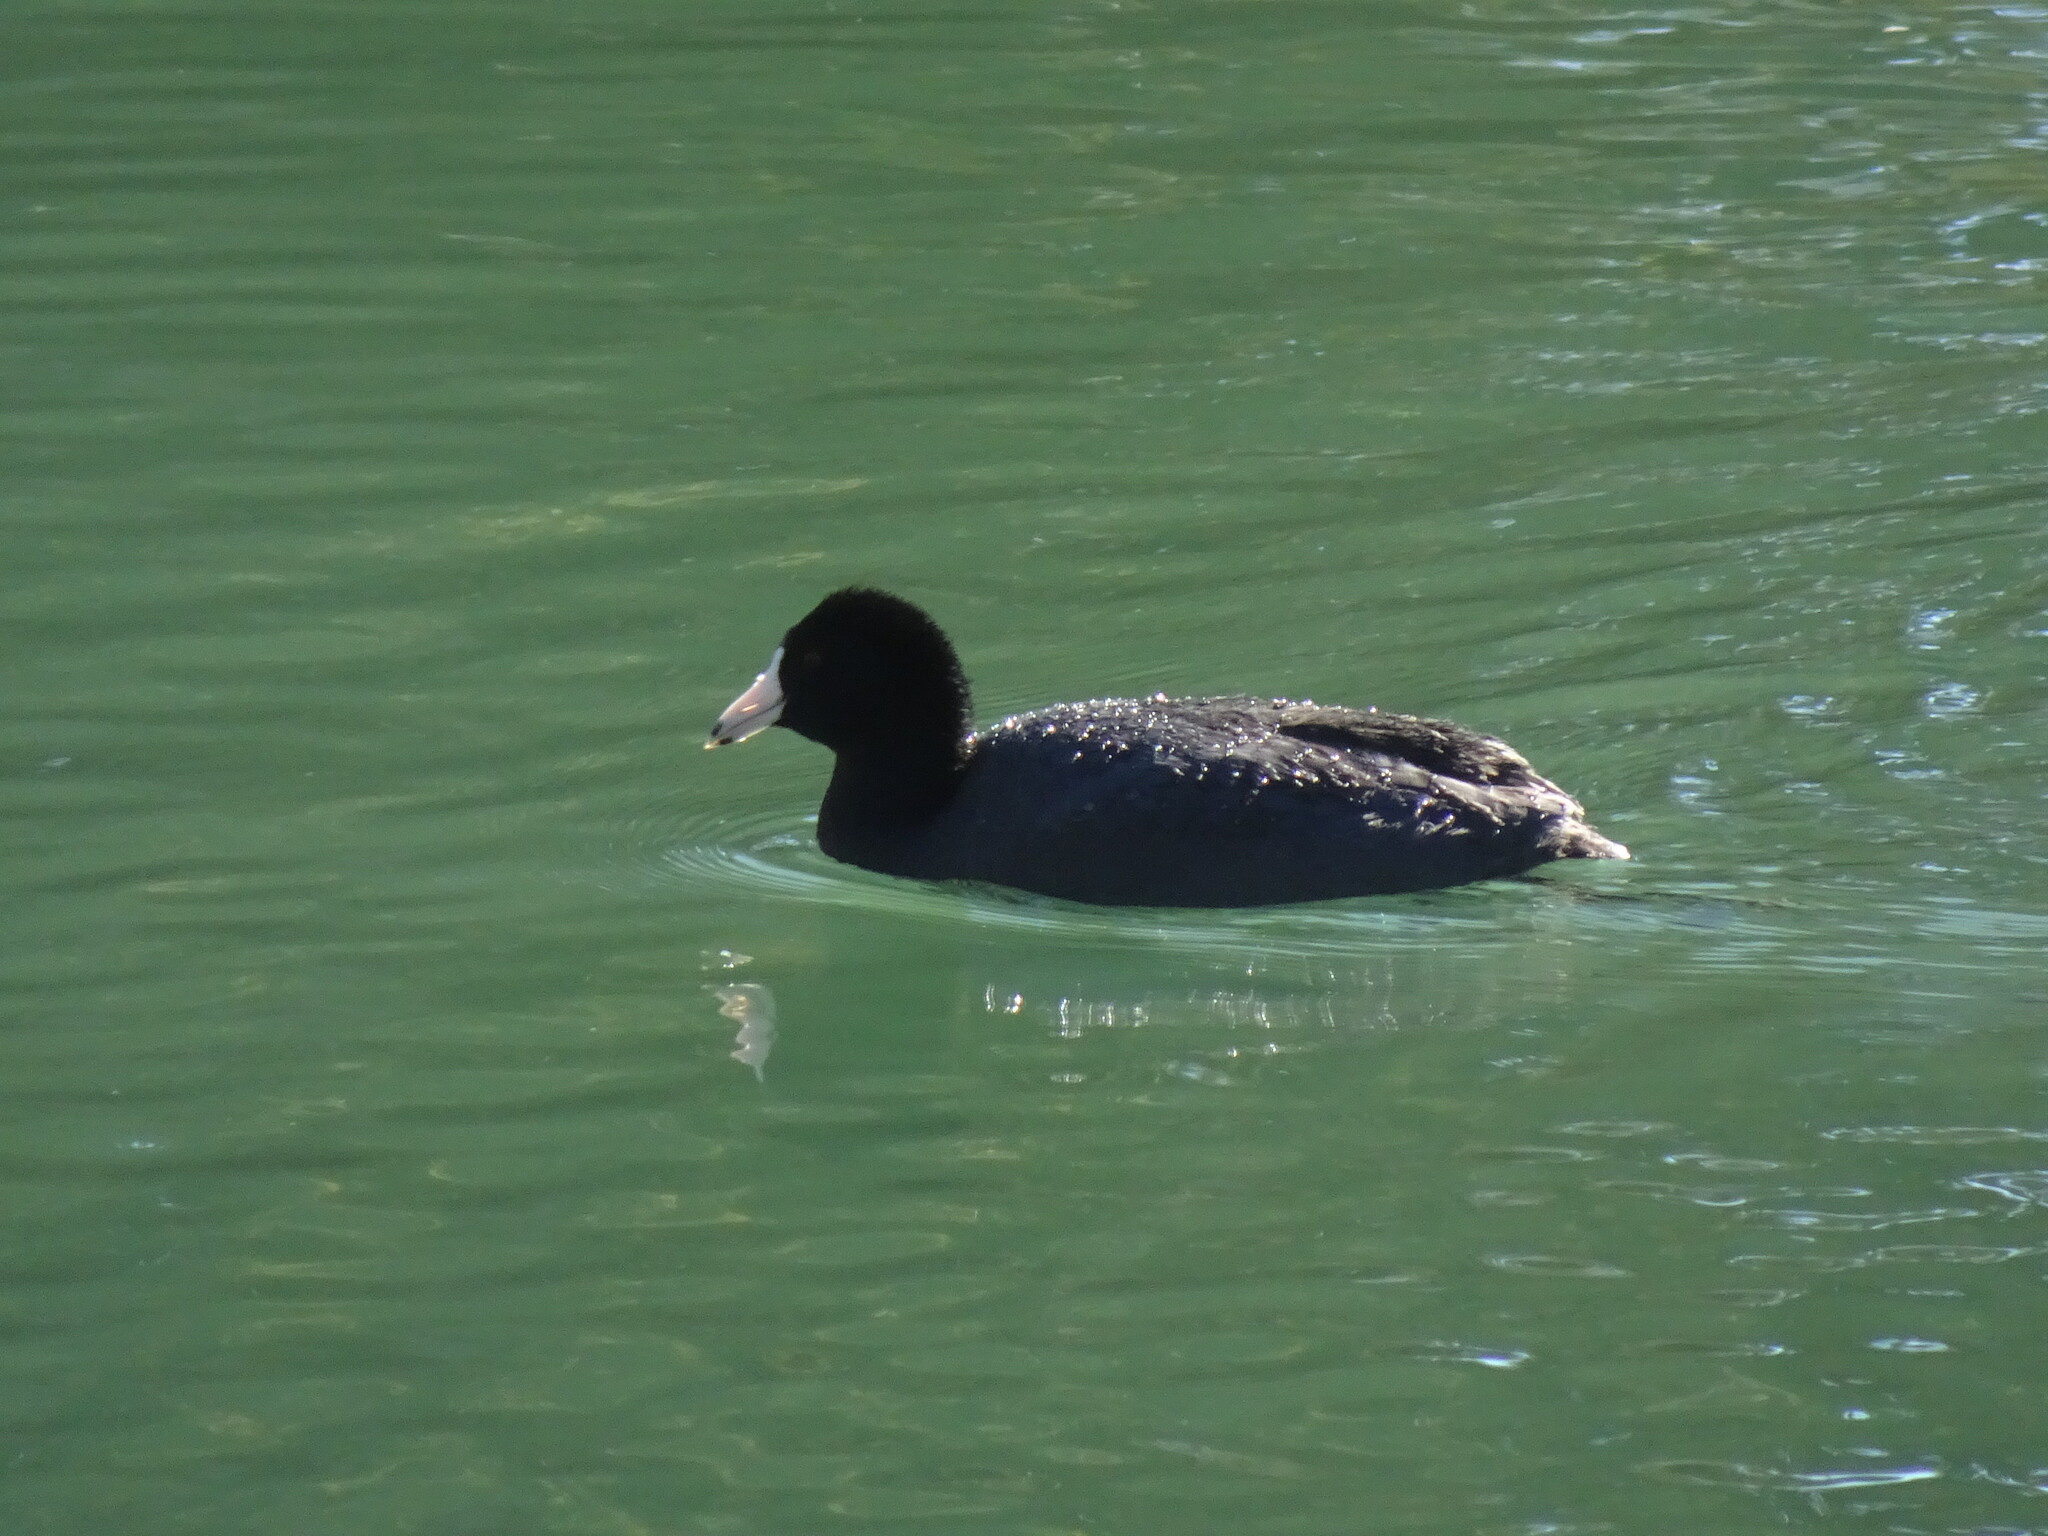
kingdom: Animalia
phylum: Chordata
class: Aves
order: Gruiformes
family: Rallidae
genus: Fulica
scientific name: Fulica americana
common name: American coot
